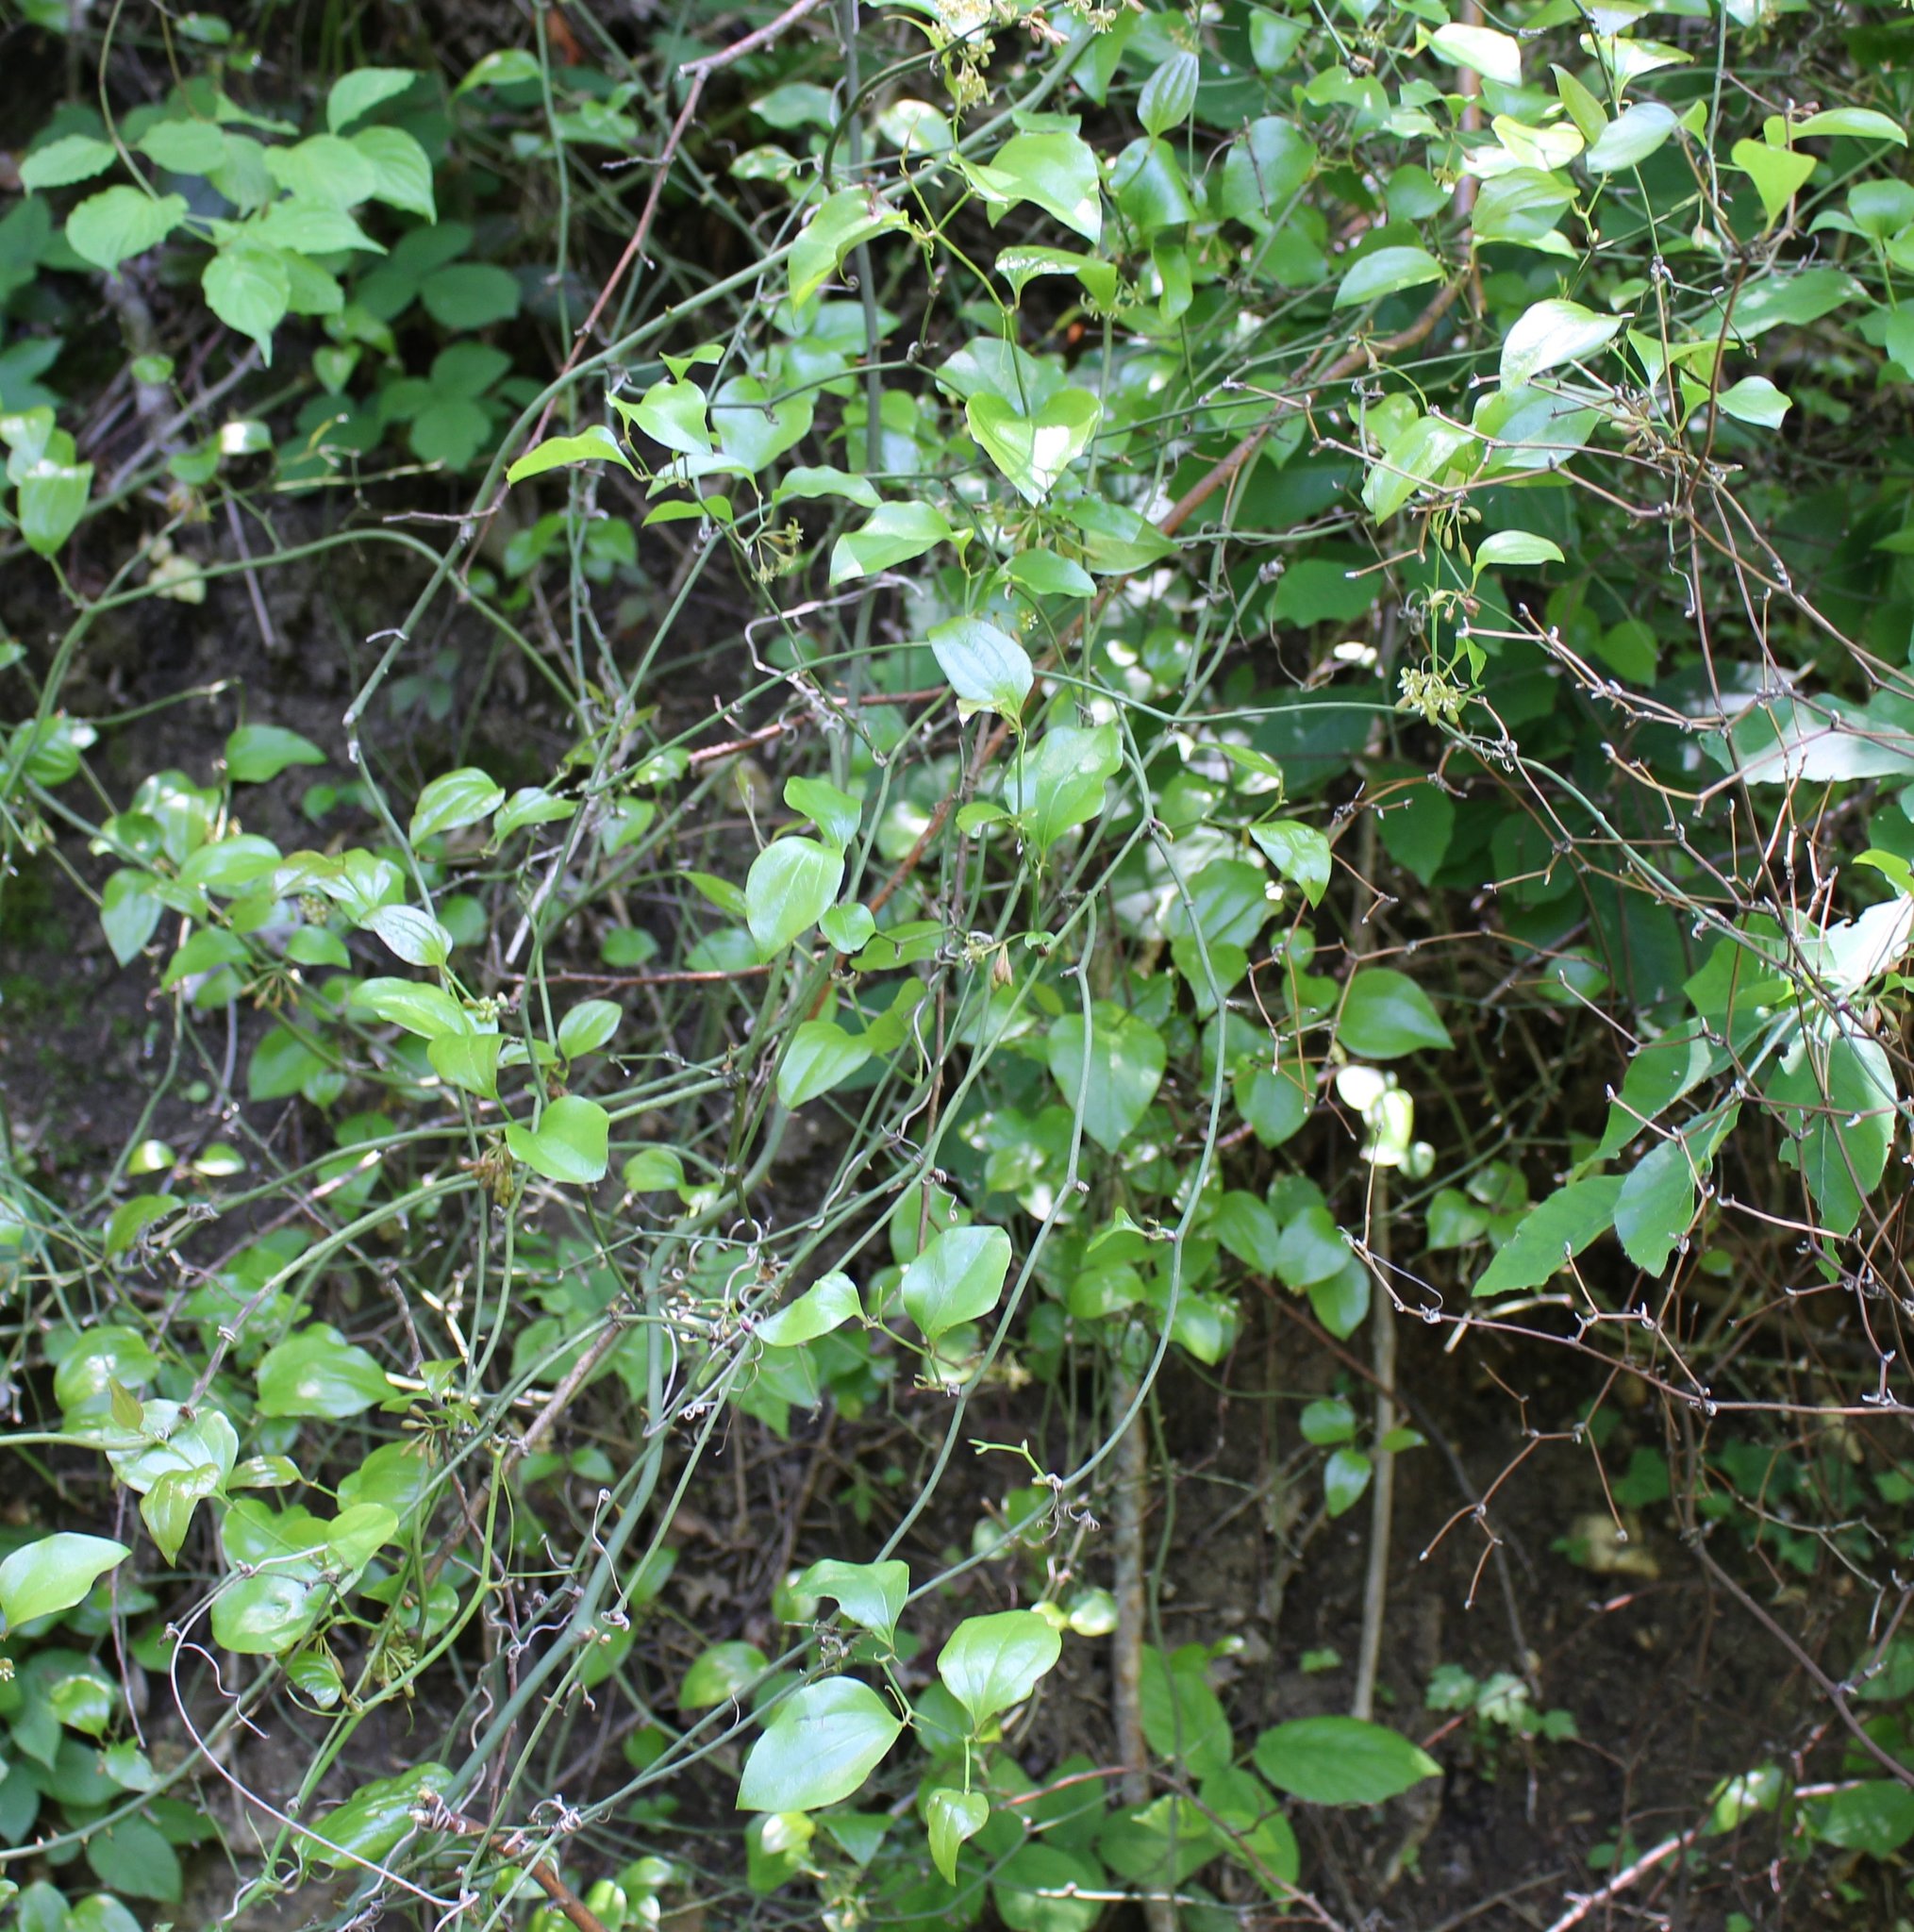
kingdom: Plantae
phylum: Tracheophyta
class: Liliopsida
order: Liliales
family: Smilacaceae
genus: Smilax
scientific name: Smilax excelsa
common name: Larger smilax
